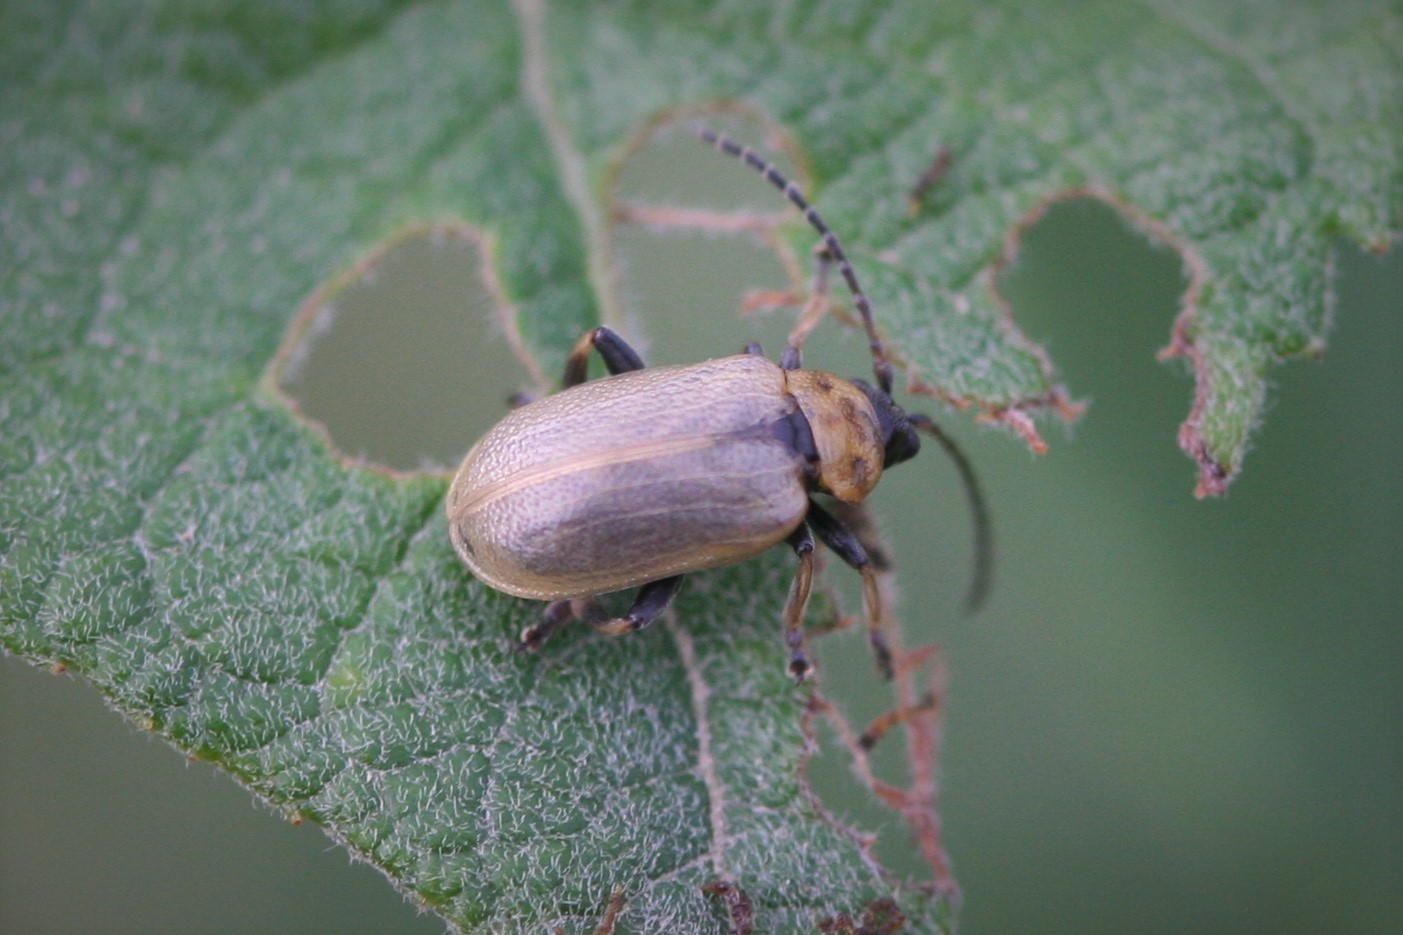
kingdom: Animalia
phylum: Arthropoda
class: Insecta
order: Coleoptera
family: Chrysomelidae
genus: Lochmaea
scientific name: Lochmaea caprea
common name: Willow leaf beetle
